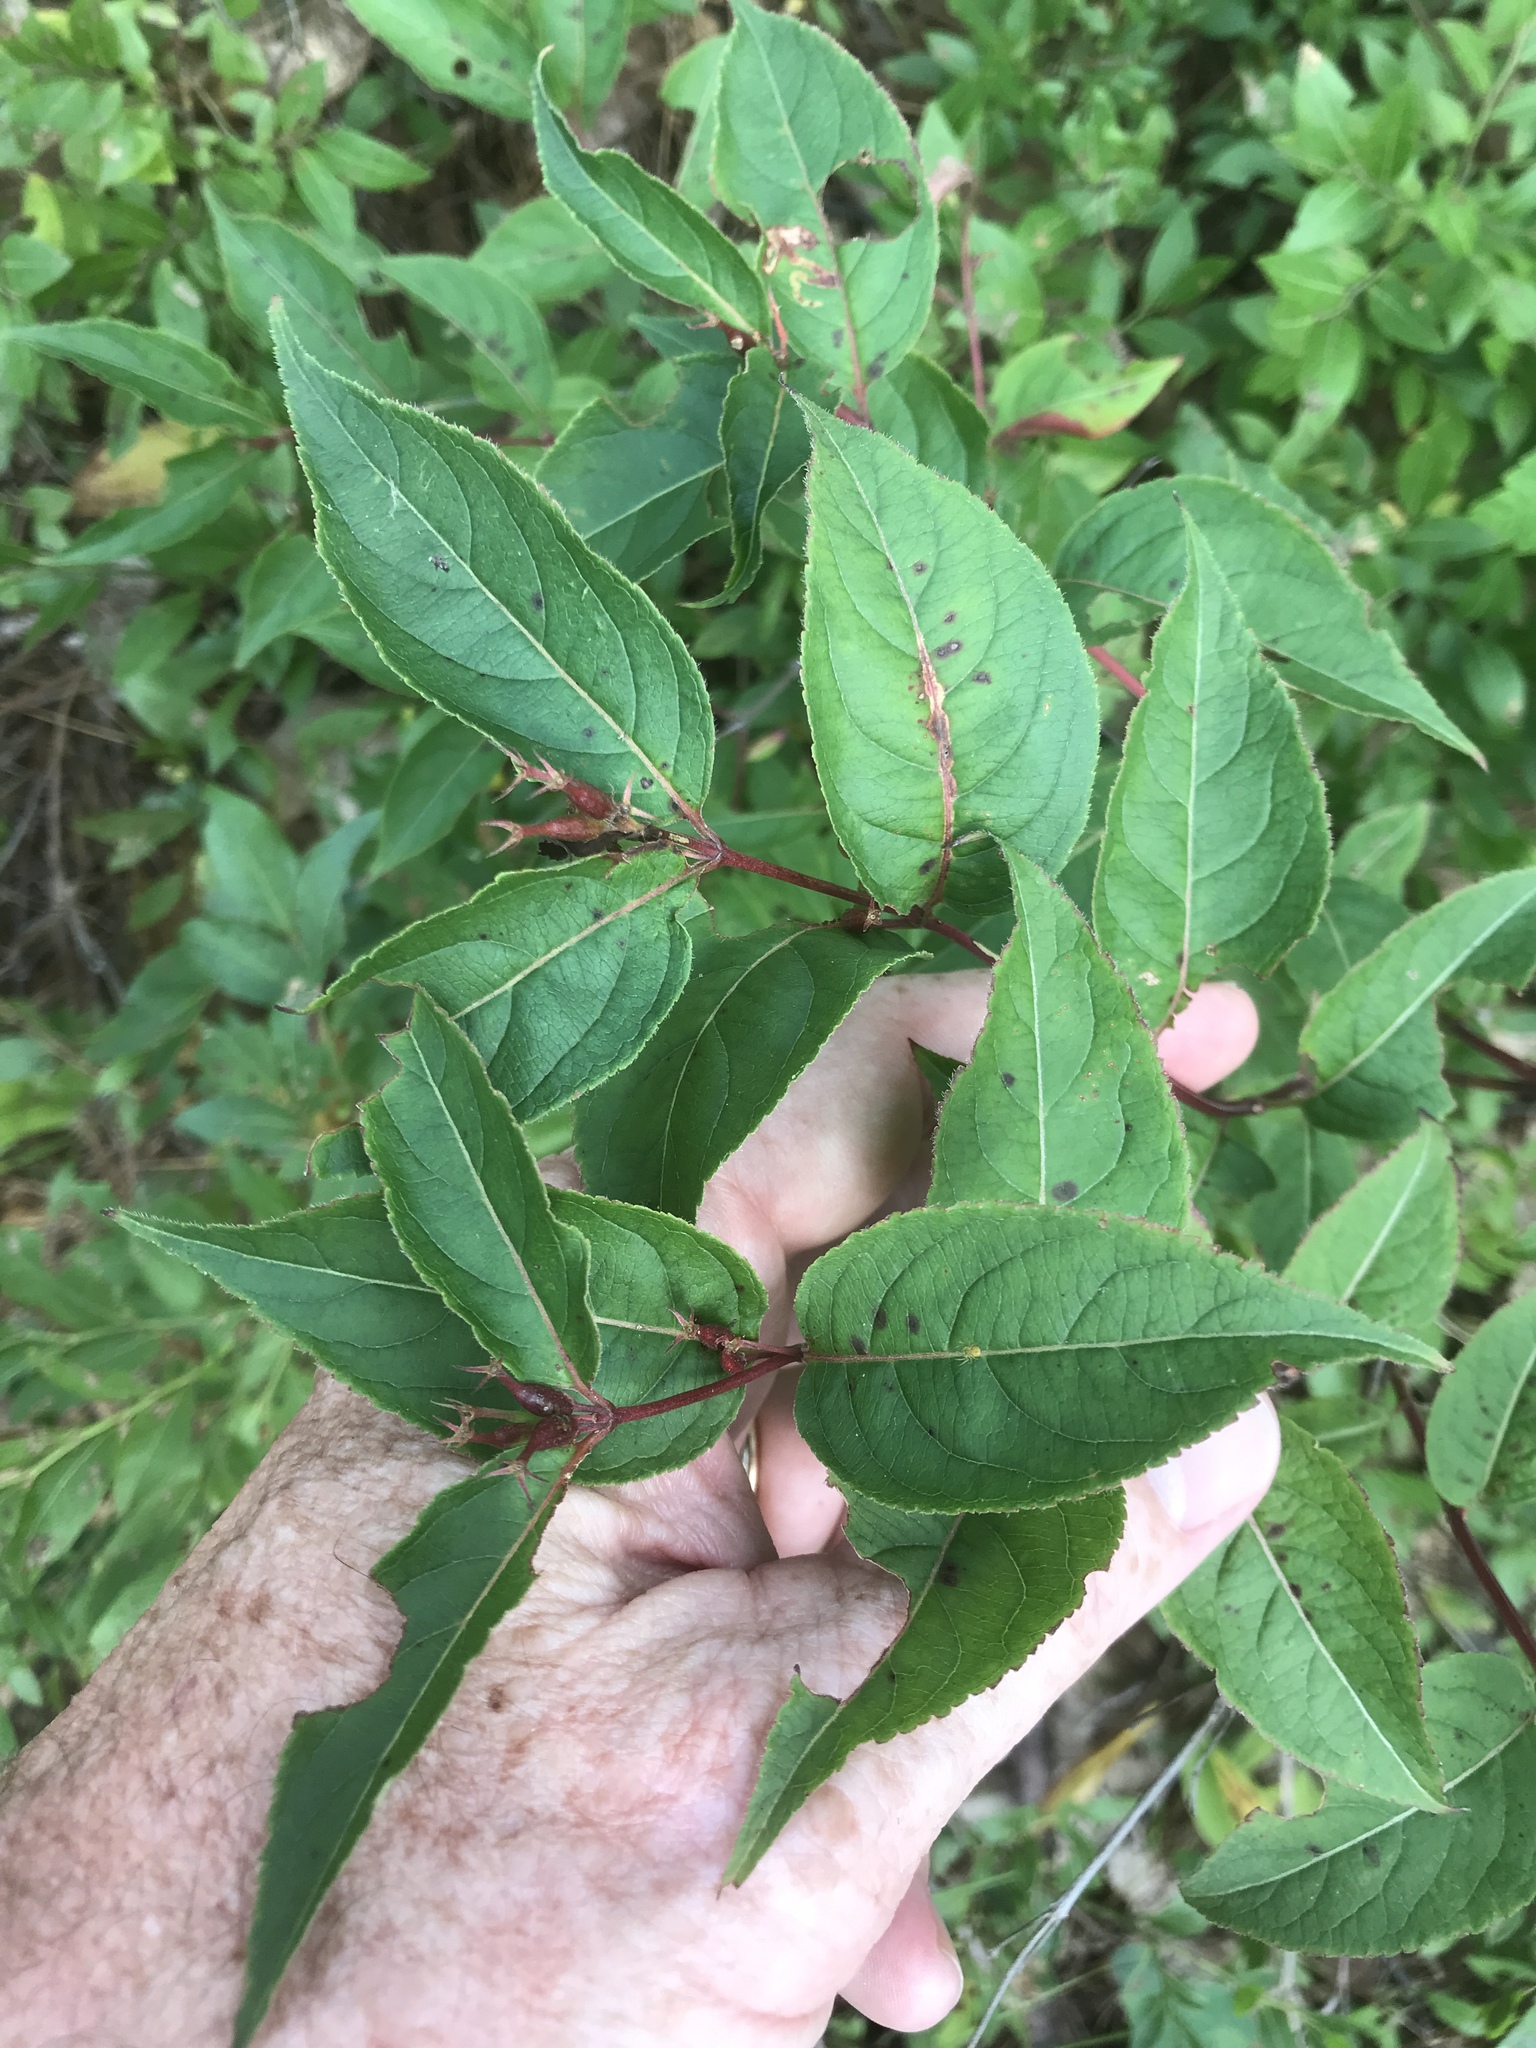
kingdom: Plantae
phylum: Tracheophyta
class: Magnoliopsida
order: Dipsacales
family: Caprifoliaceae
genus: Diervilla
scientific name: Diervilla lonicera
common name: Bush-honeysuckle
